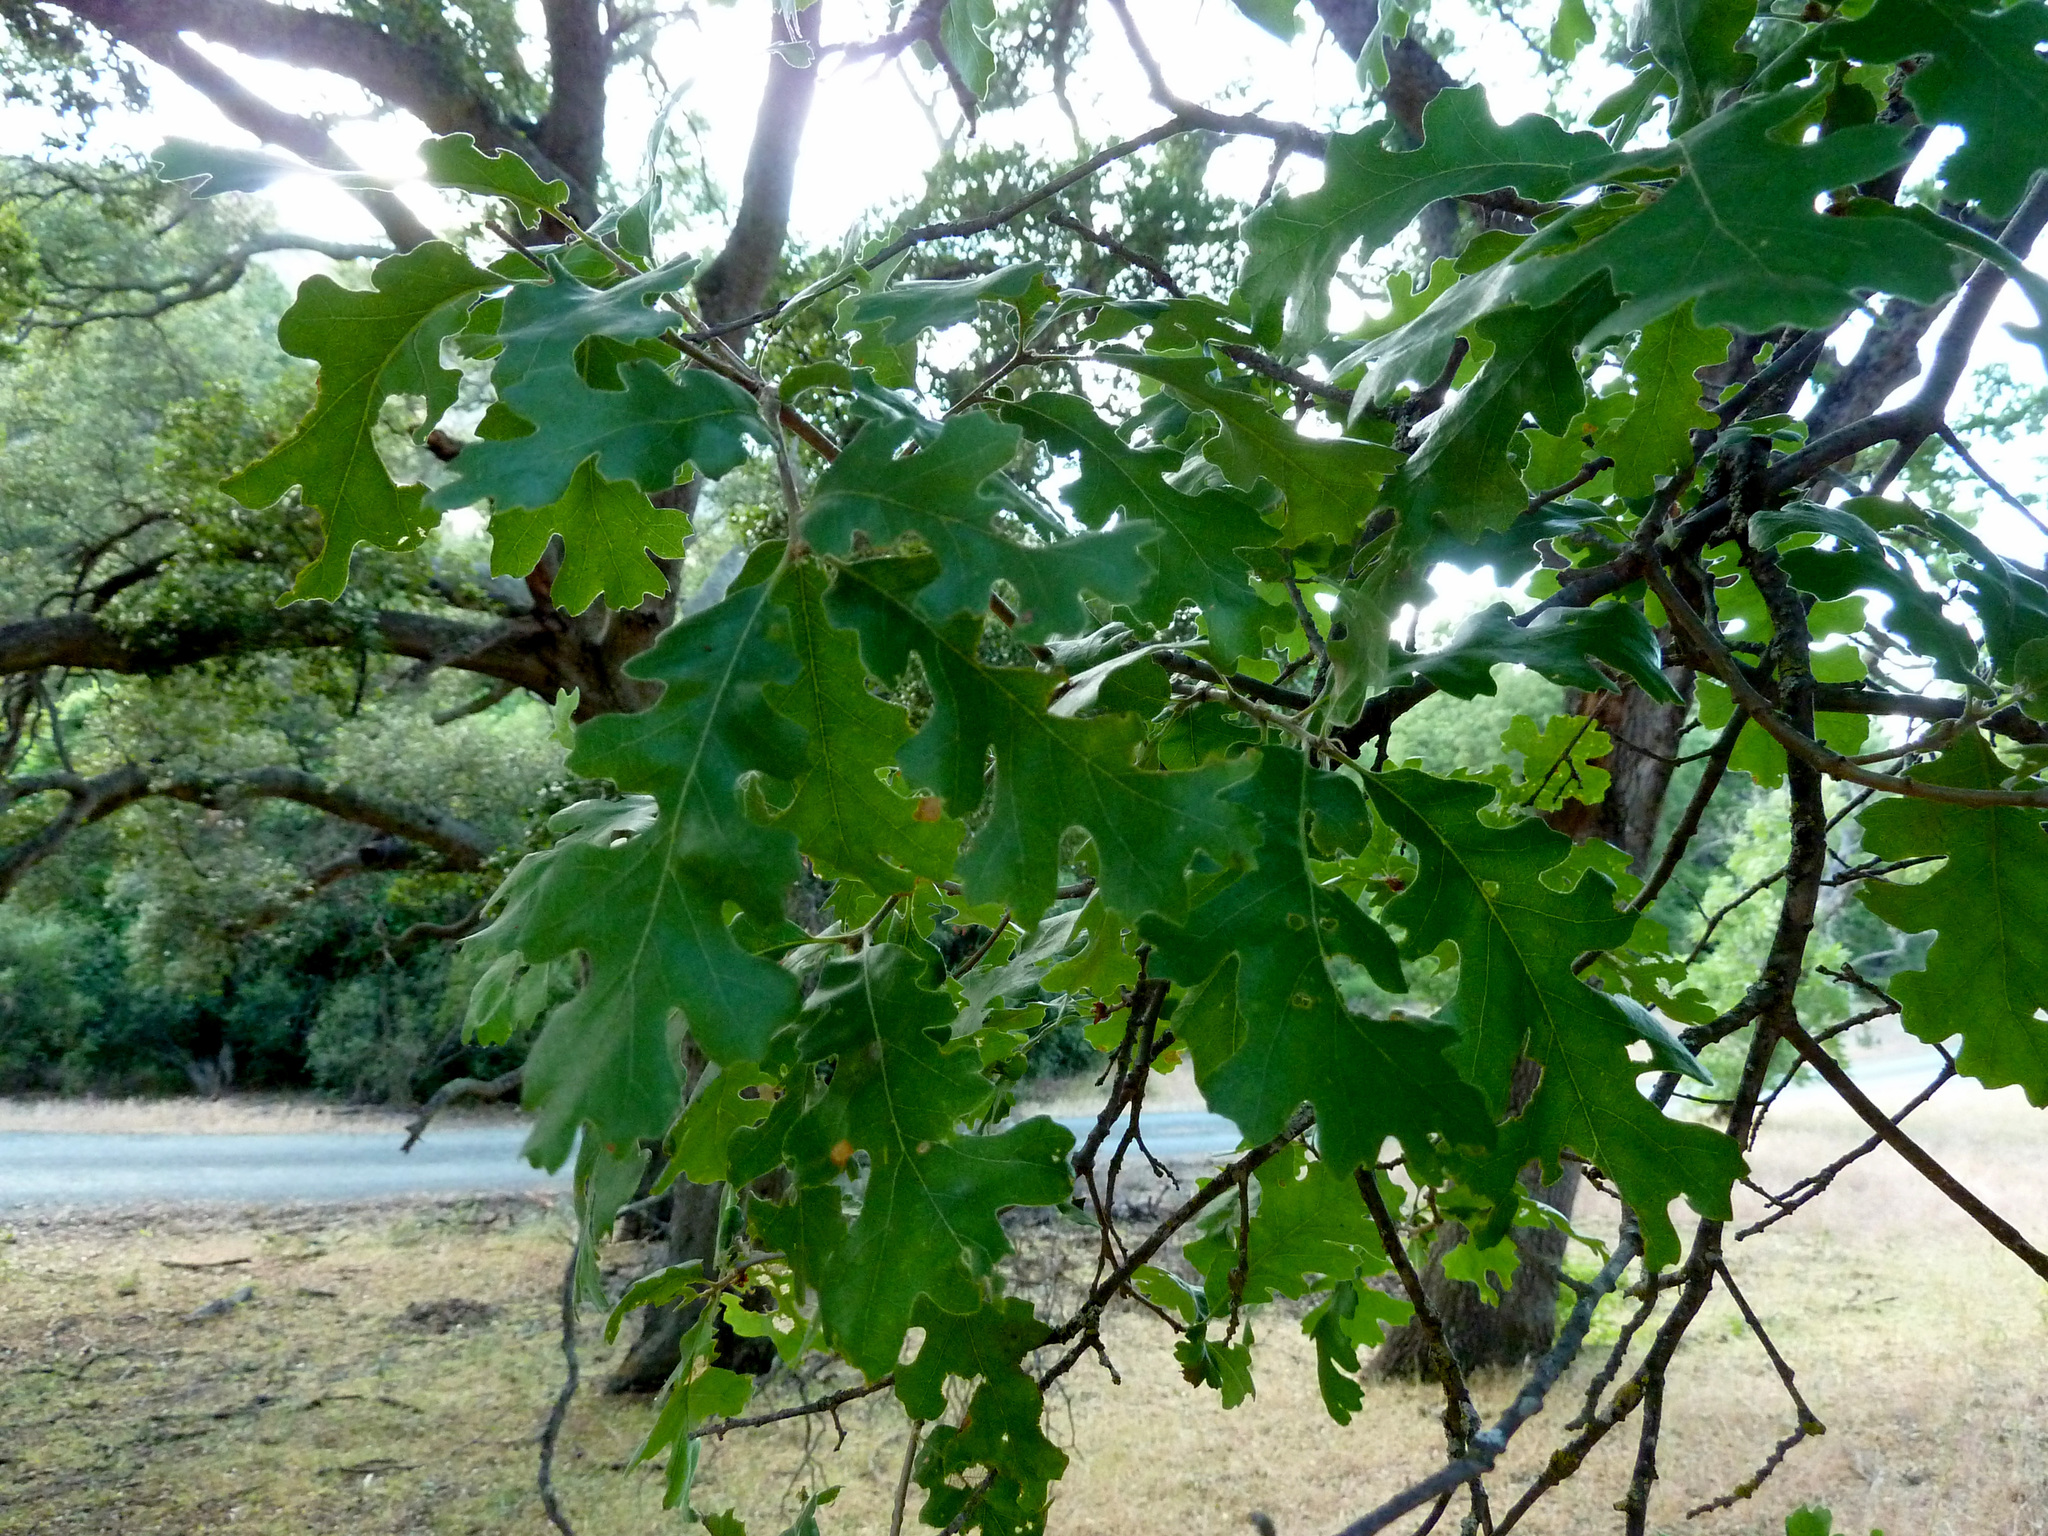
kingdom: Plantae
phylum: Tracheophyta
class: Magnoliopsida
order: Fagales
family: Fagaceae
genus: Quercus
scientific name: Quercus lobata
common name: Valley oak
